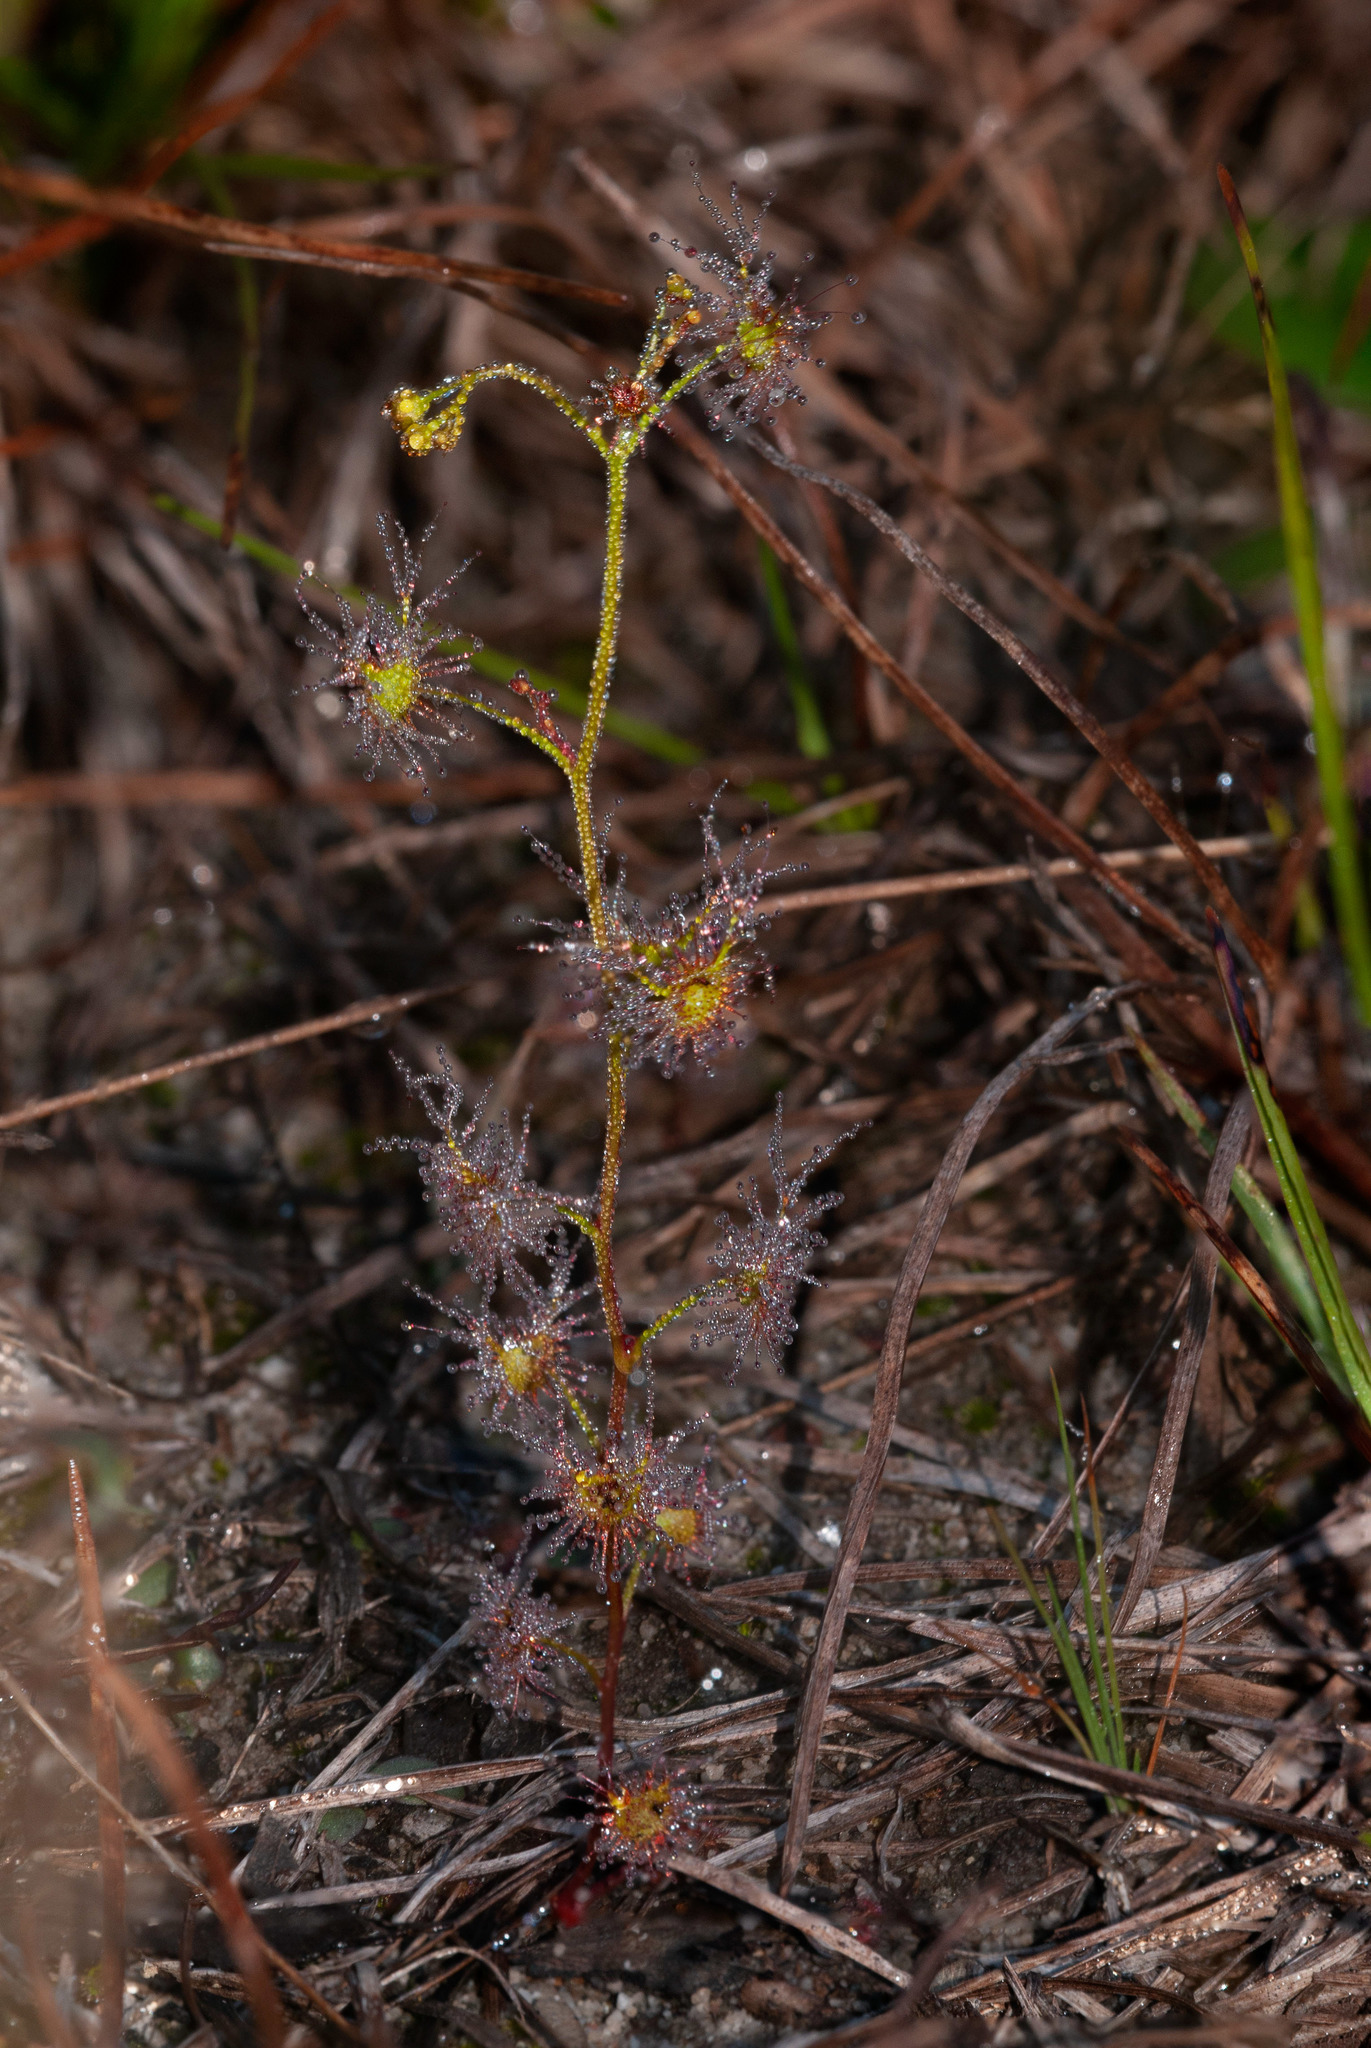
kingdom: Plantae
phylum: Tracheophyta
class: Magnoliopsida
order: Caryophyllales
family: Droseraceae
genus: Drosera
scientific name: Drosera peltata
